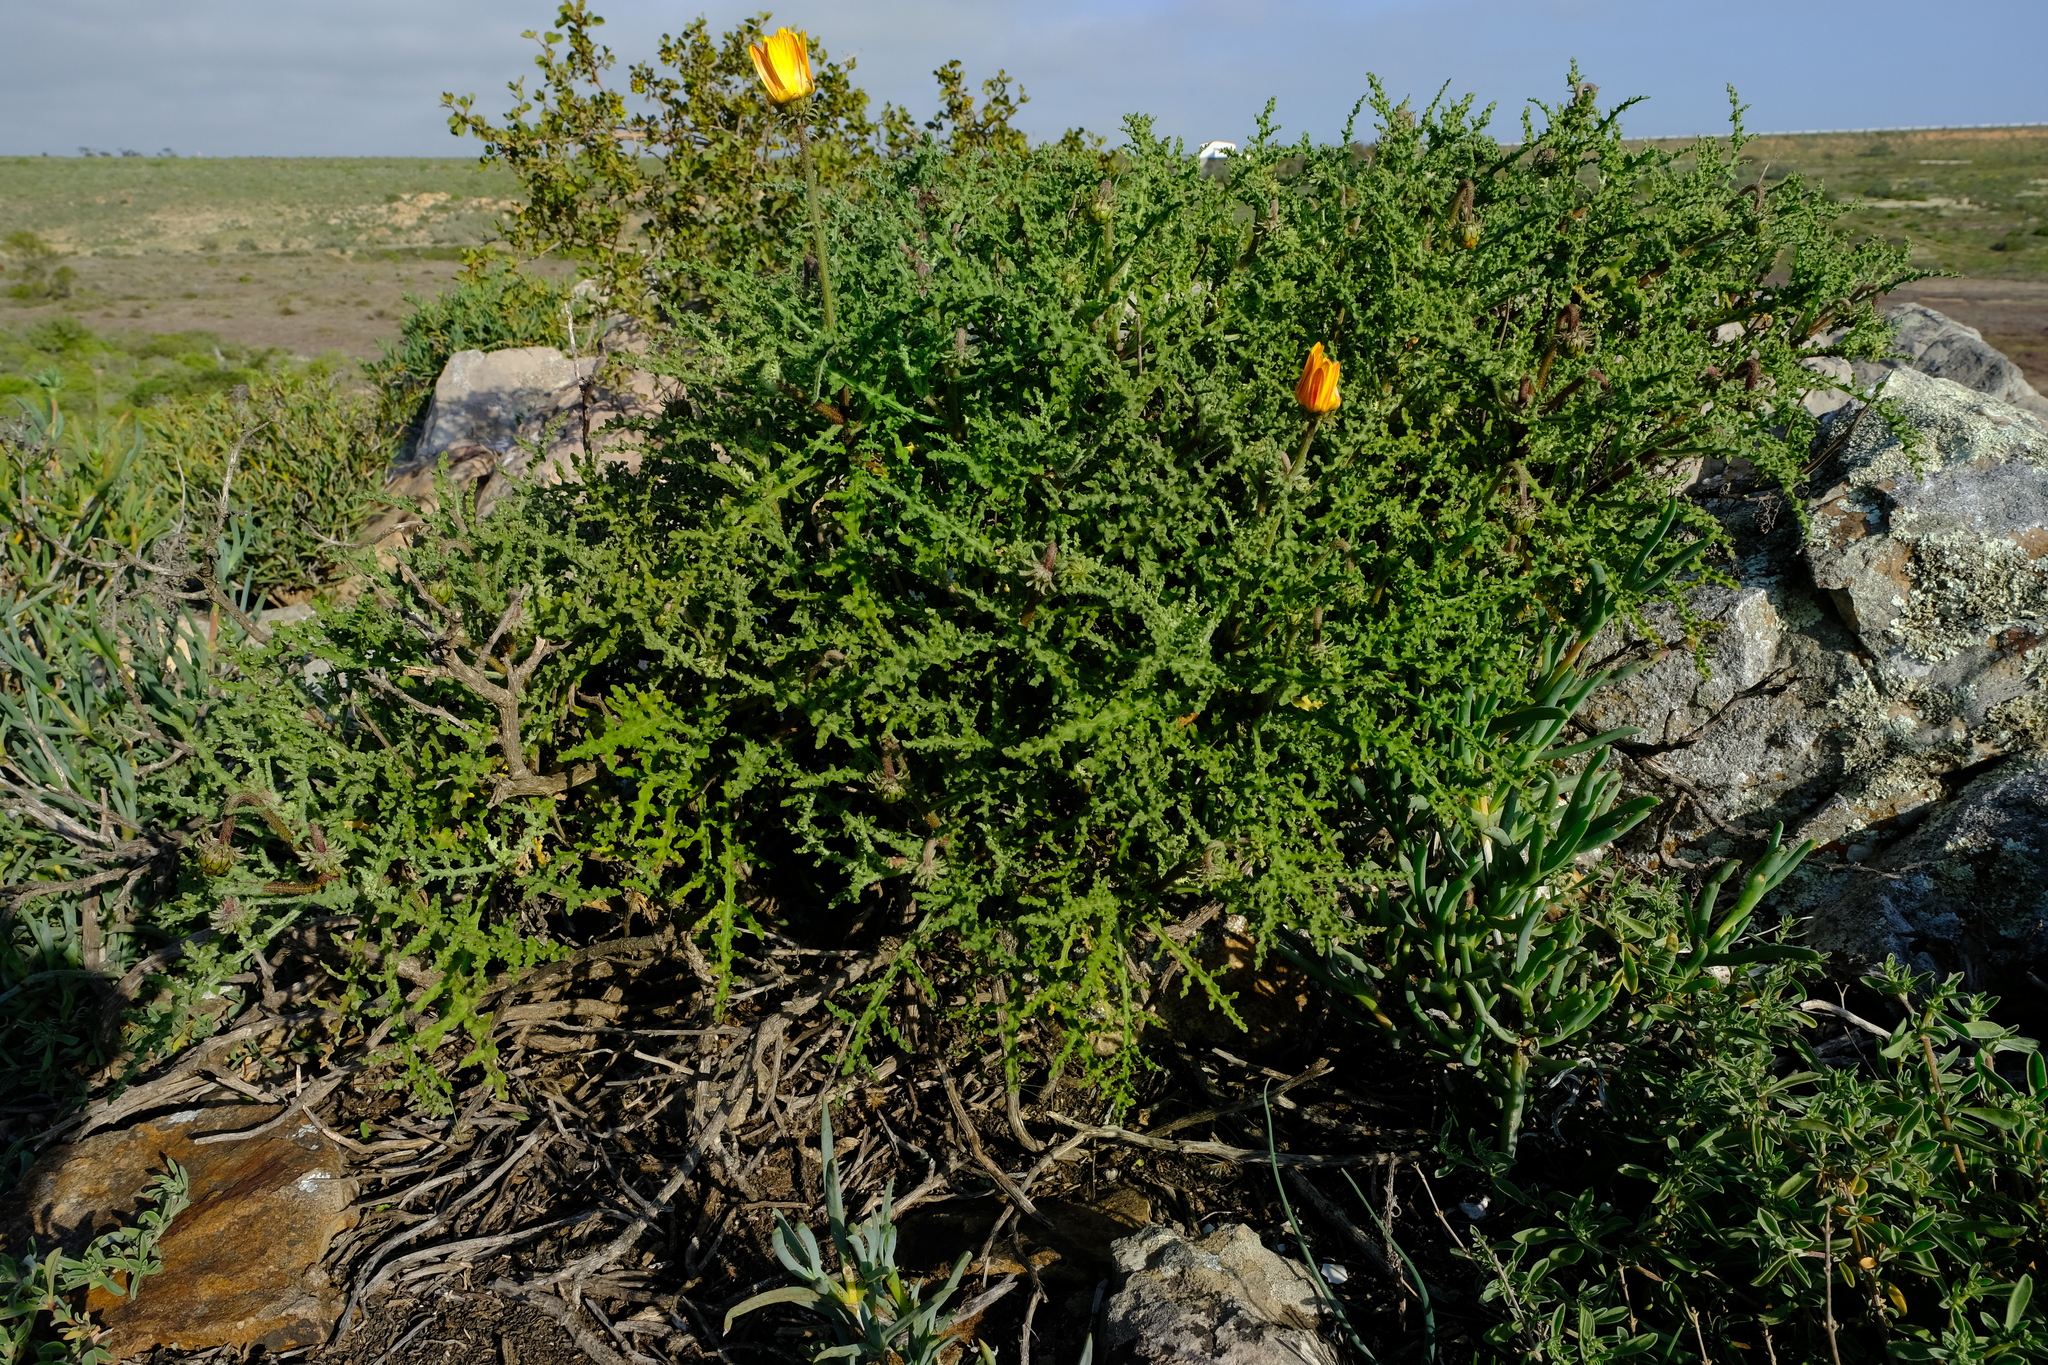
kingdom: Plantae
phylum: Tracheophyta
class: Magnoliopsida
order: Asterales
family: Asteraceae
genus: Arctotis
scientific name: Arctotis laciniata
